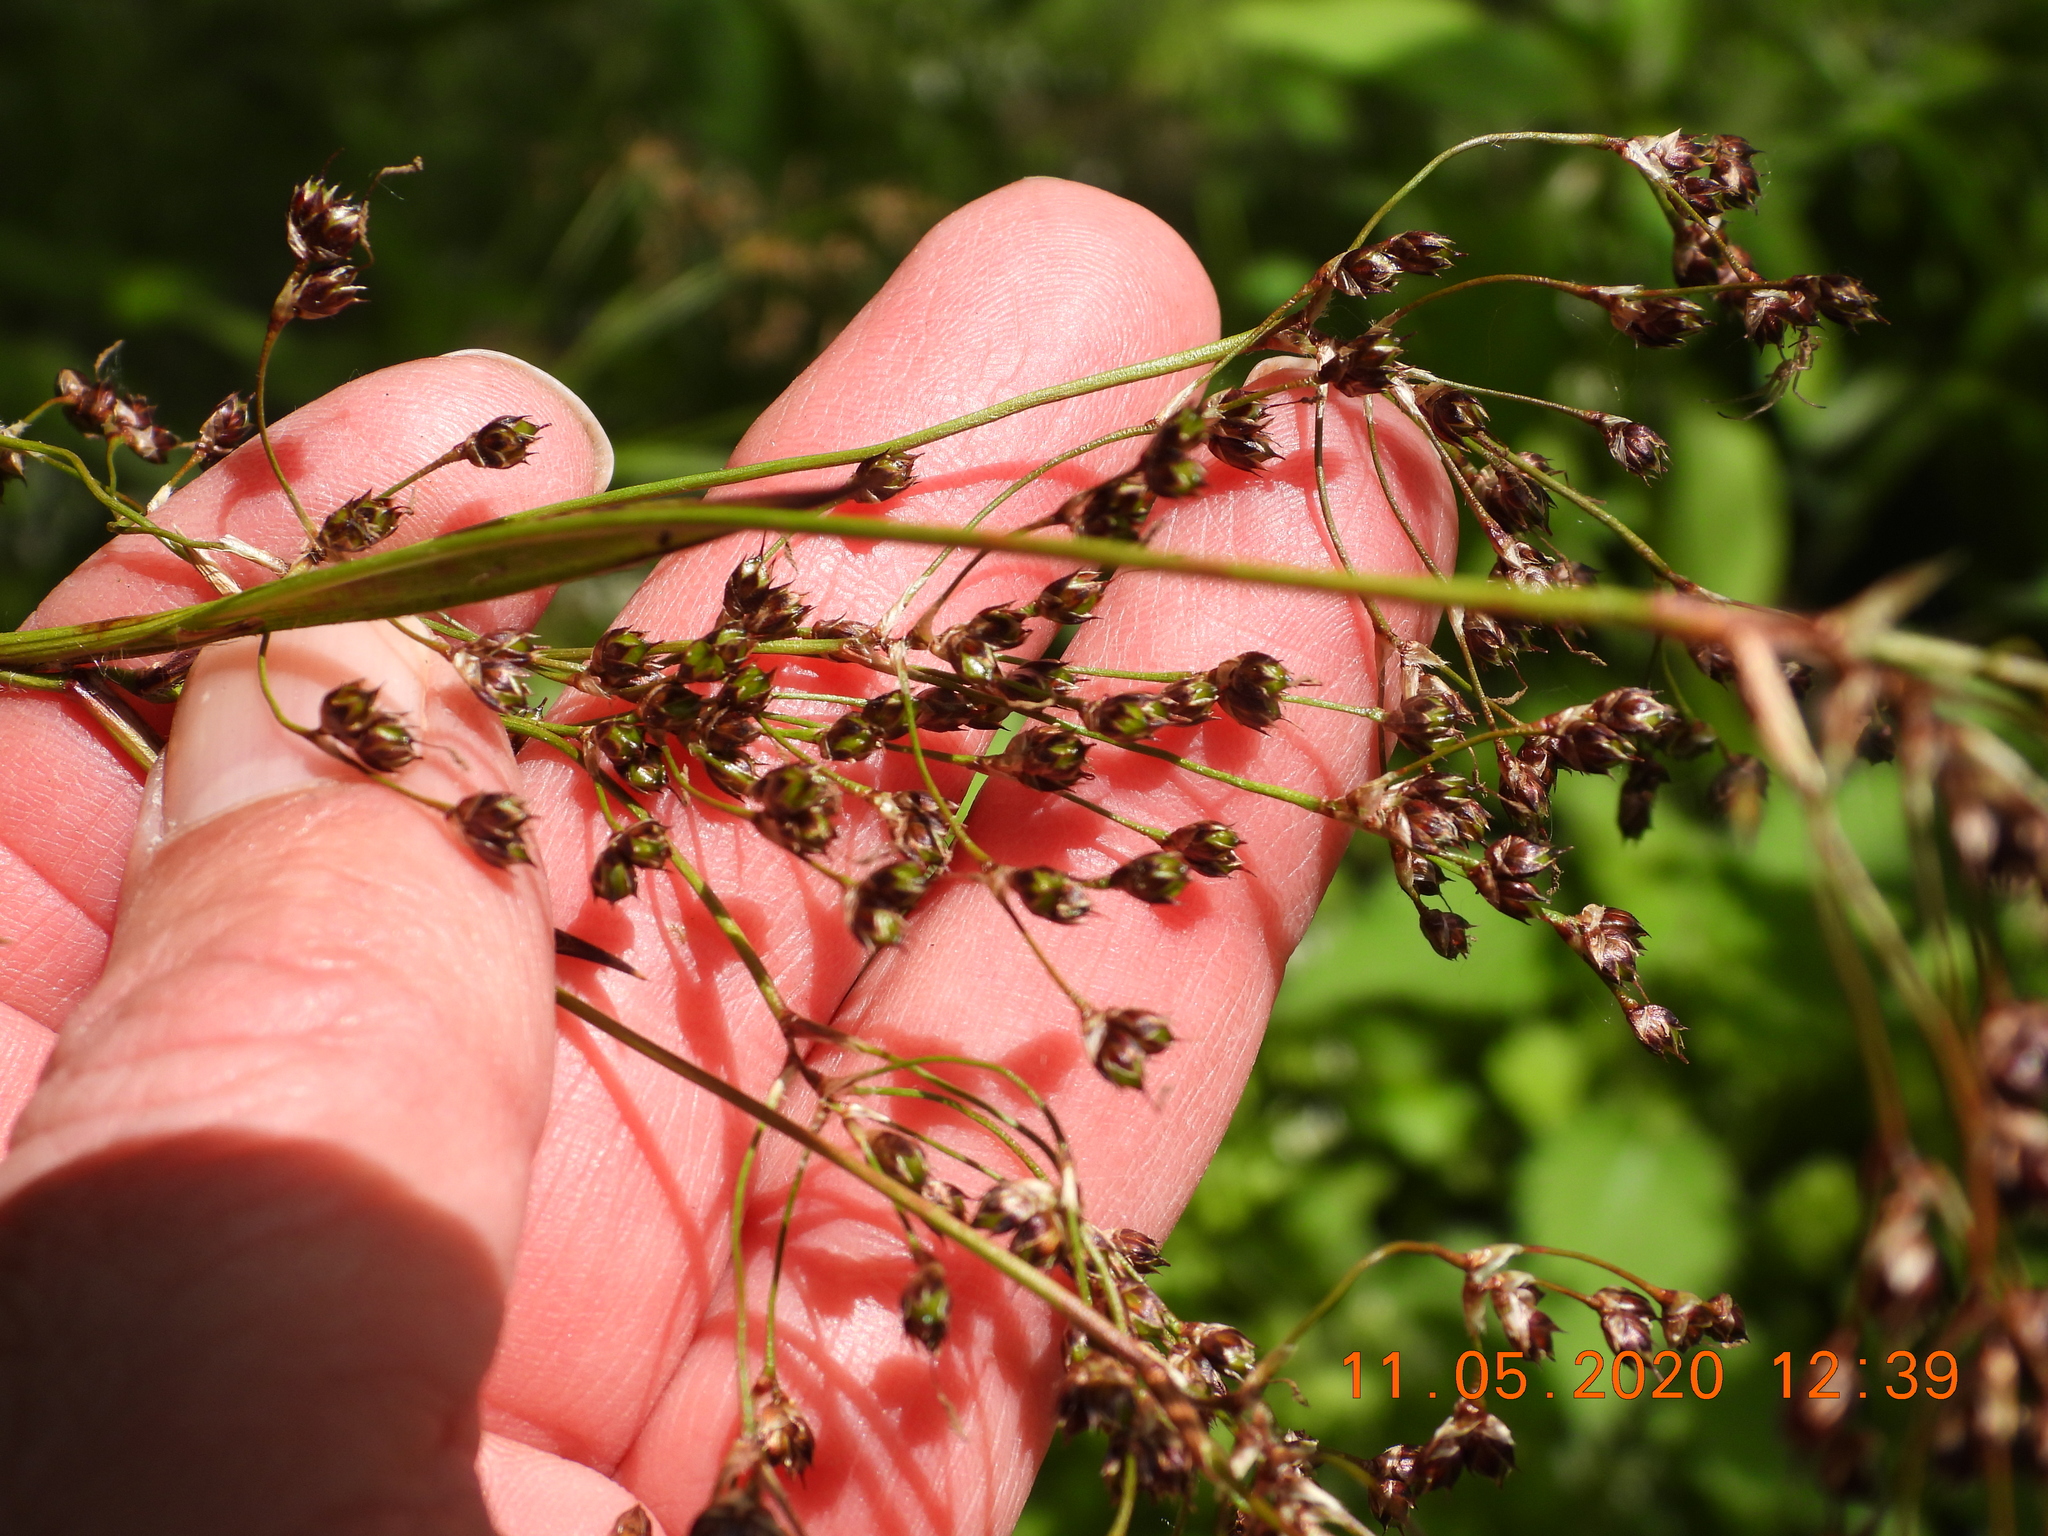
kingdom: Plantae
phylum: Tracheophyta
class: Liliopsida
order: Poales
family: Juncaceae
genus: Luzula
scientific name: Luzula sylvatica
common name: Great wood-rush
